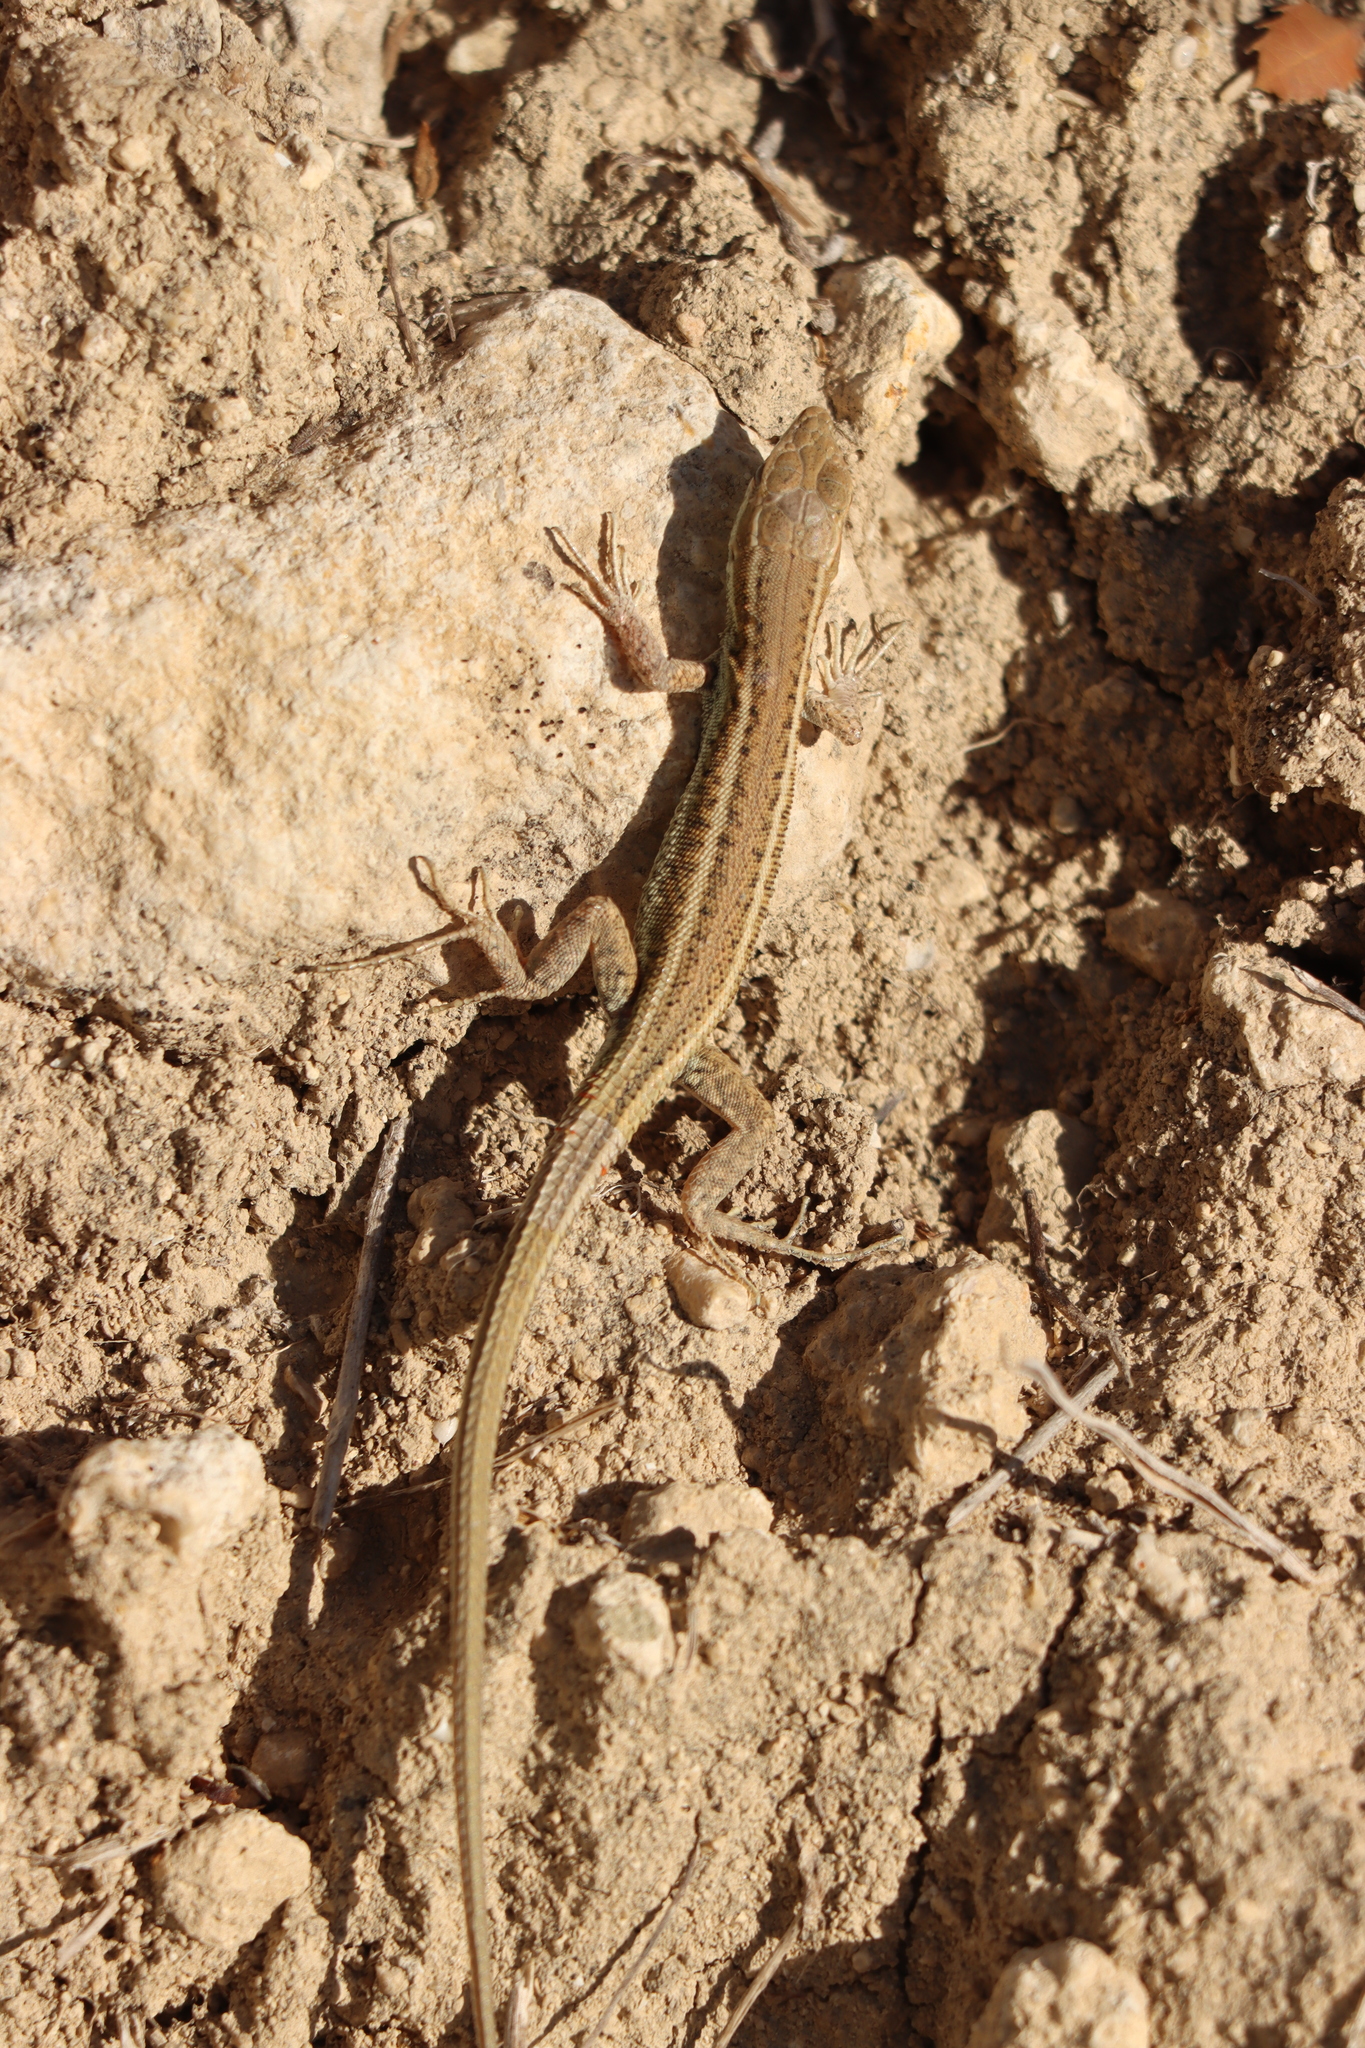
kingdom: Animalia
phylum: Chordata
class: Squamata
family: Lacertidae
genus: Ophisops
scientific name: Ophisops elegans
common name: Snake-eyed lizard
